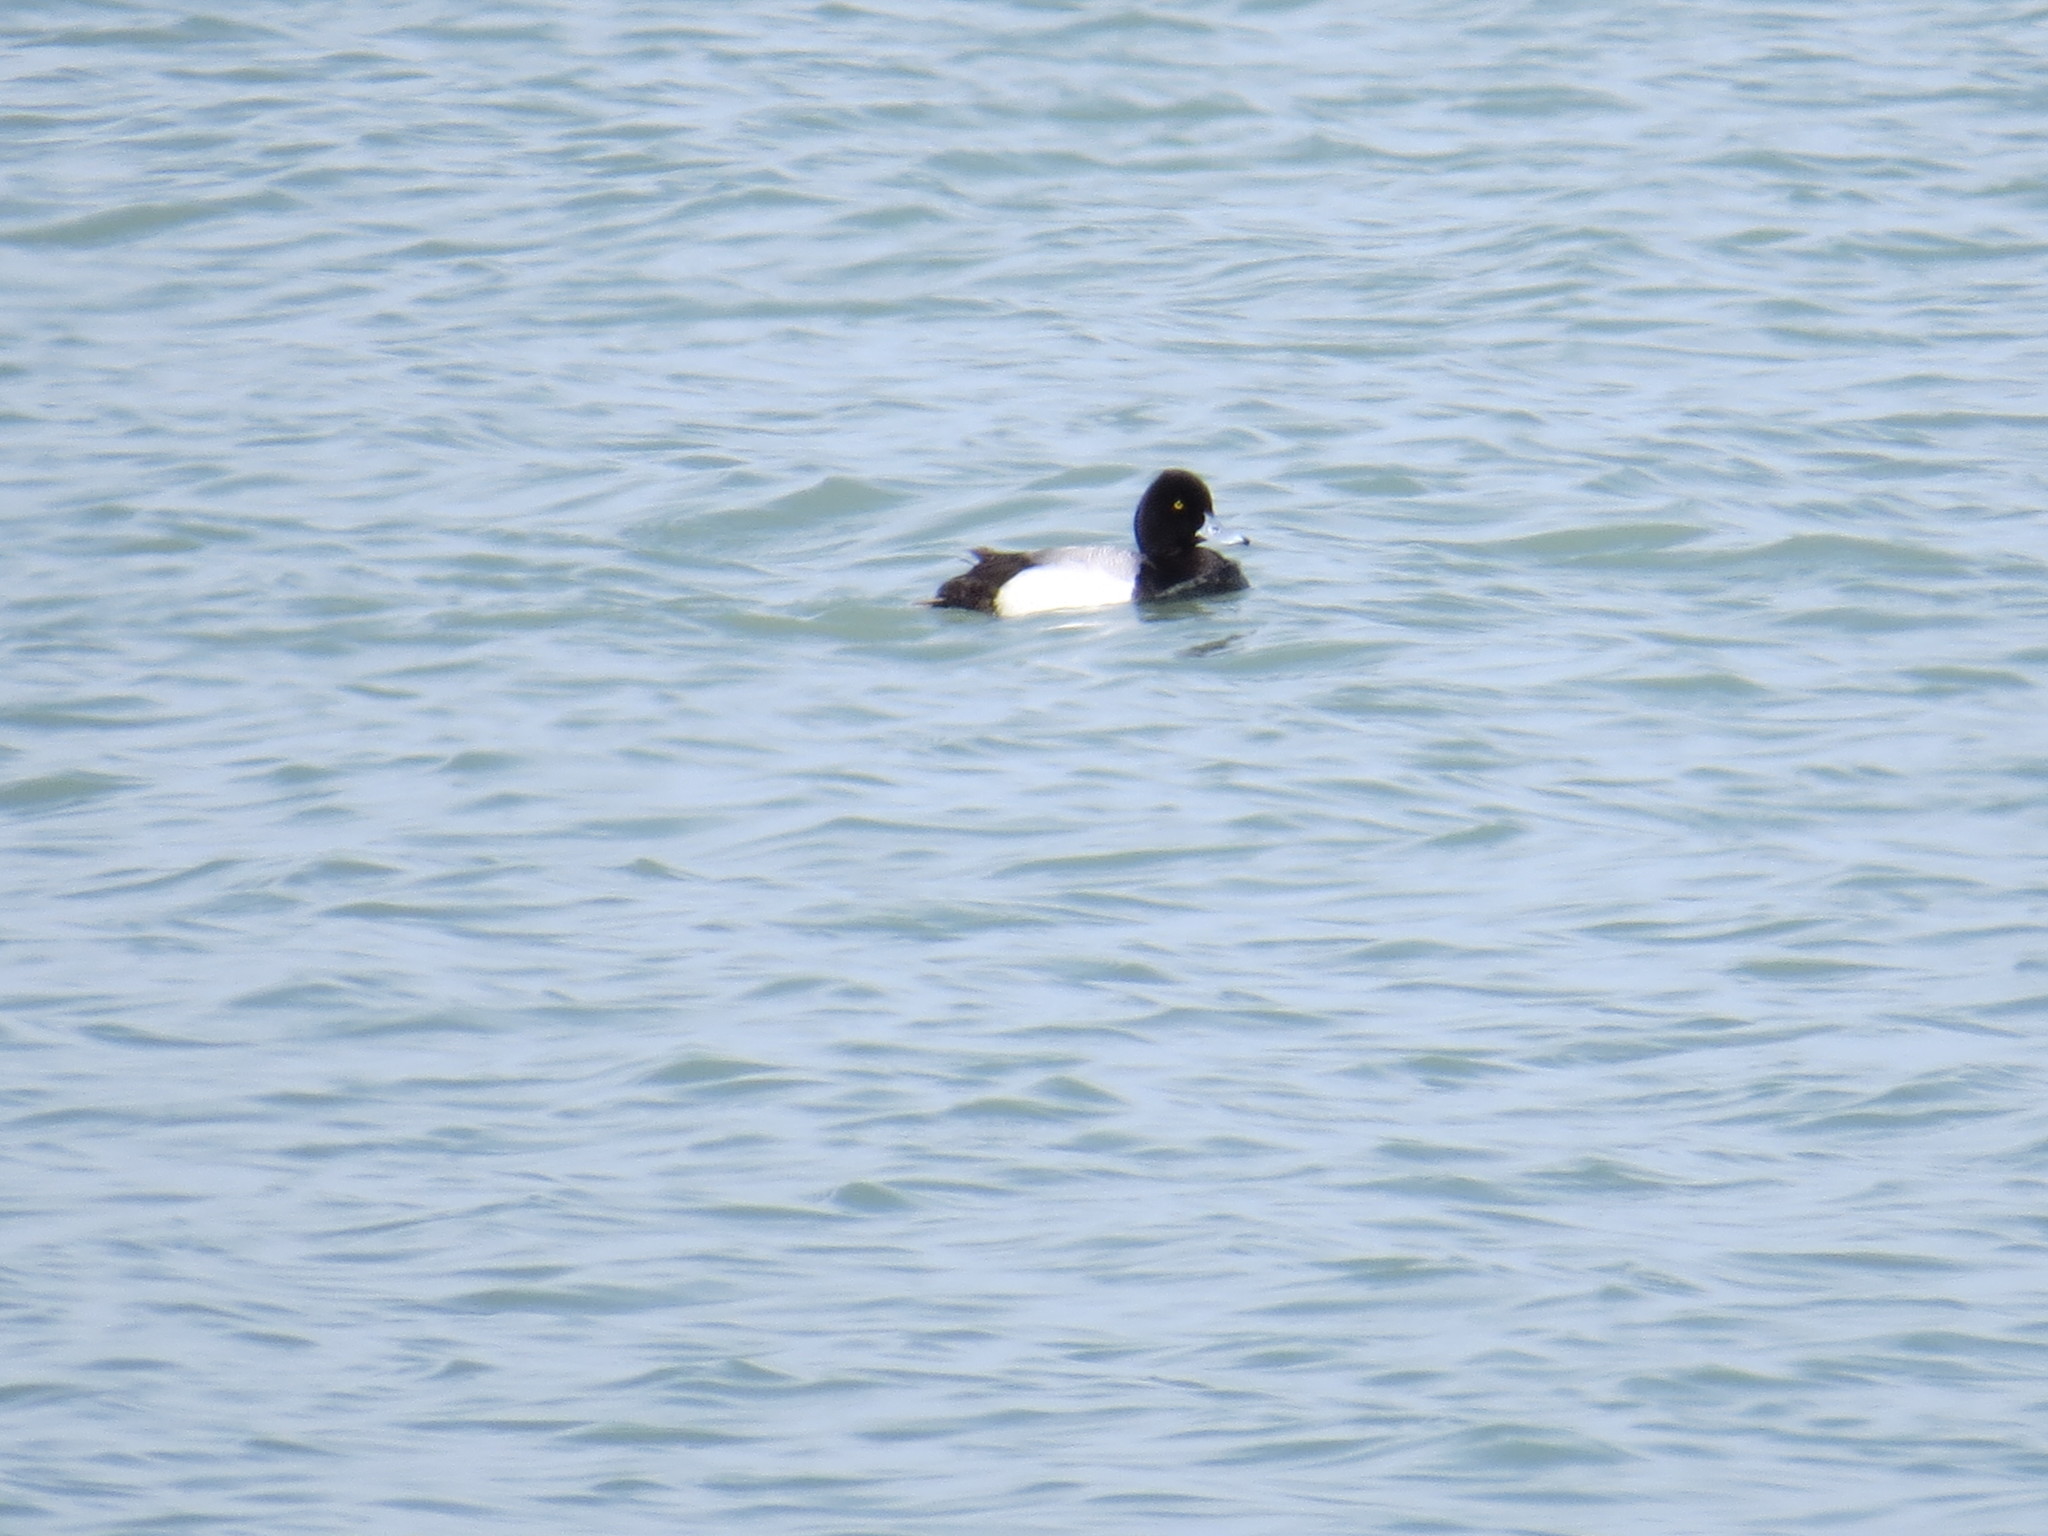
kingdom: Animalia
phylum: Chordata
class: Aves
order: Anseriformes
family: Anatidae
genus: Aythya
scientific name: Aythya affinis
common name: Lesser scaup
